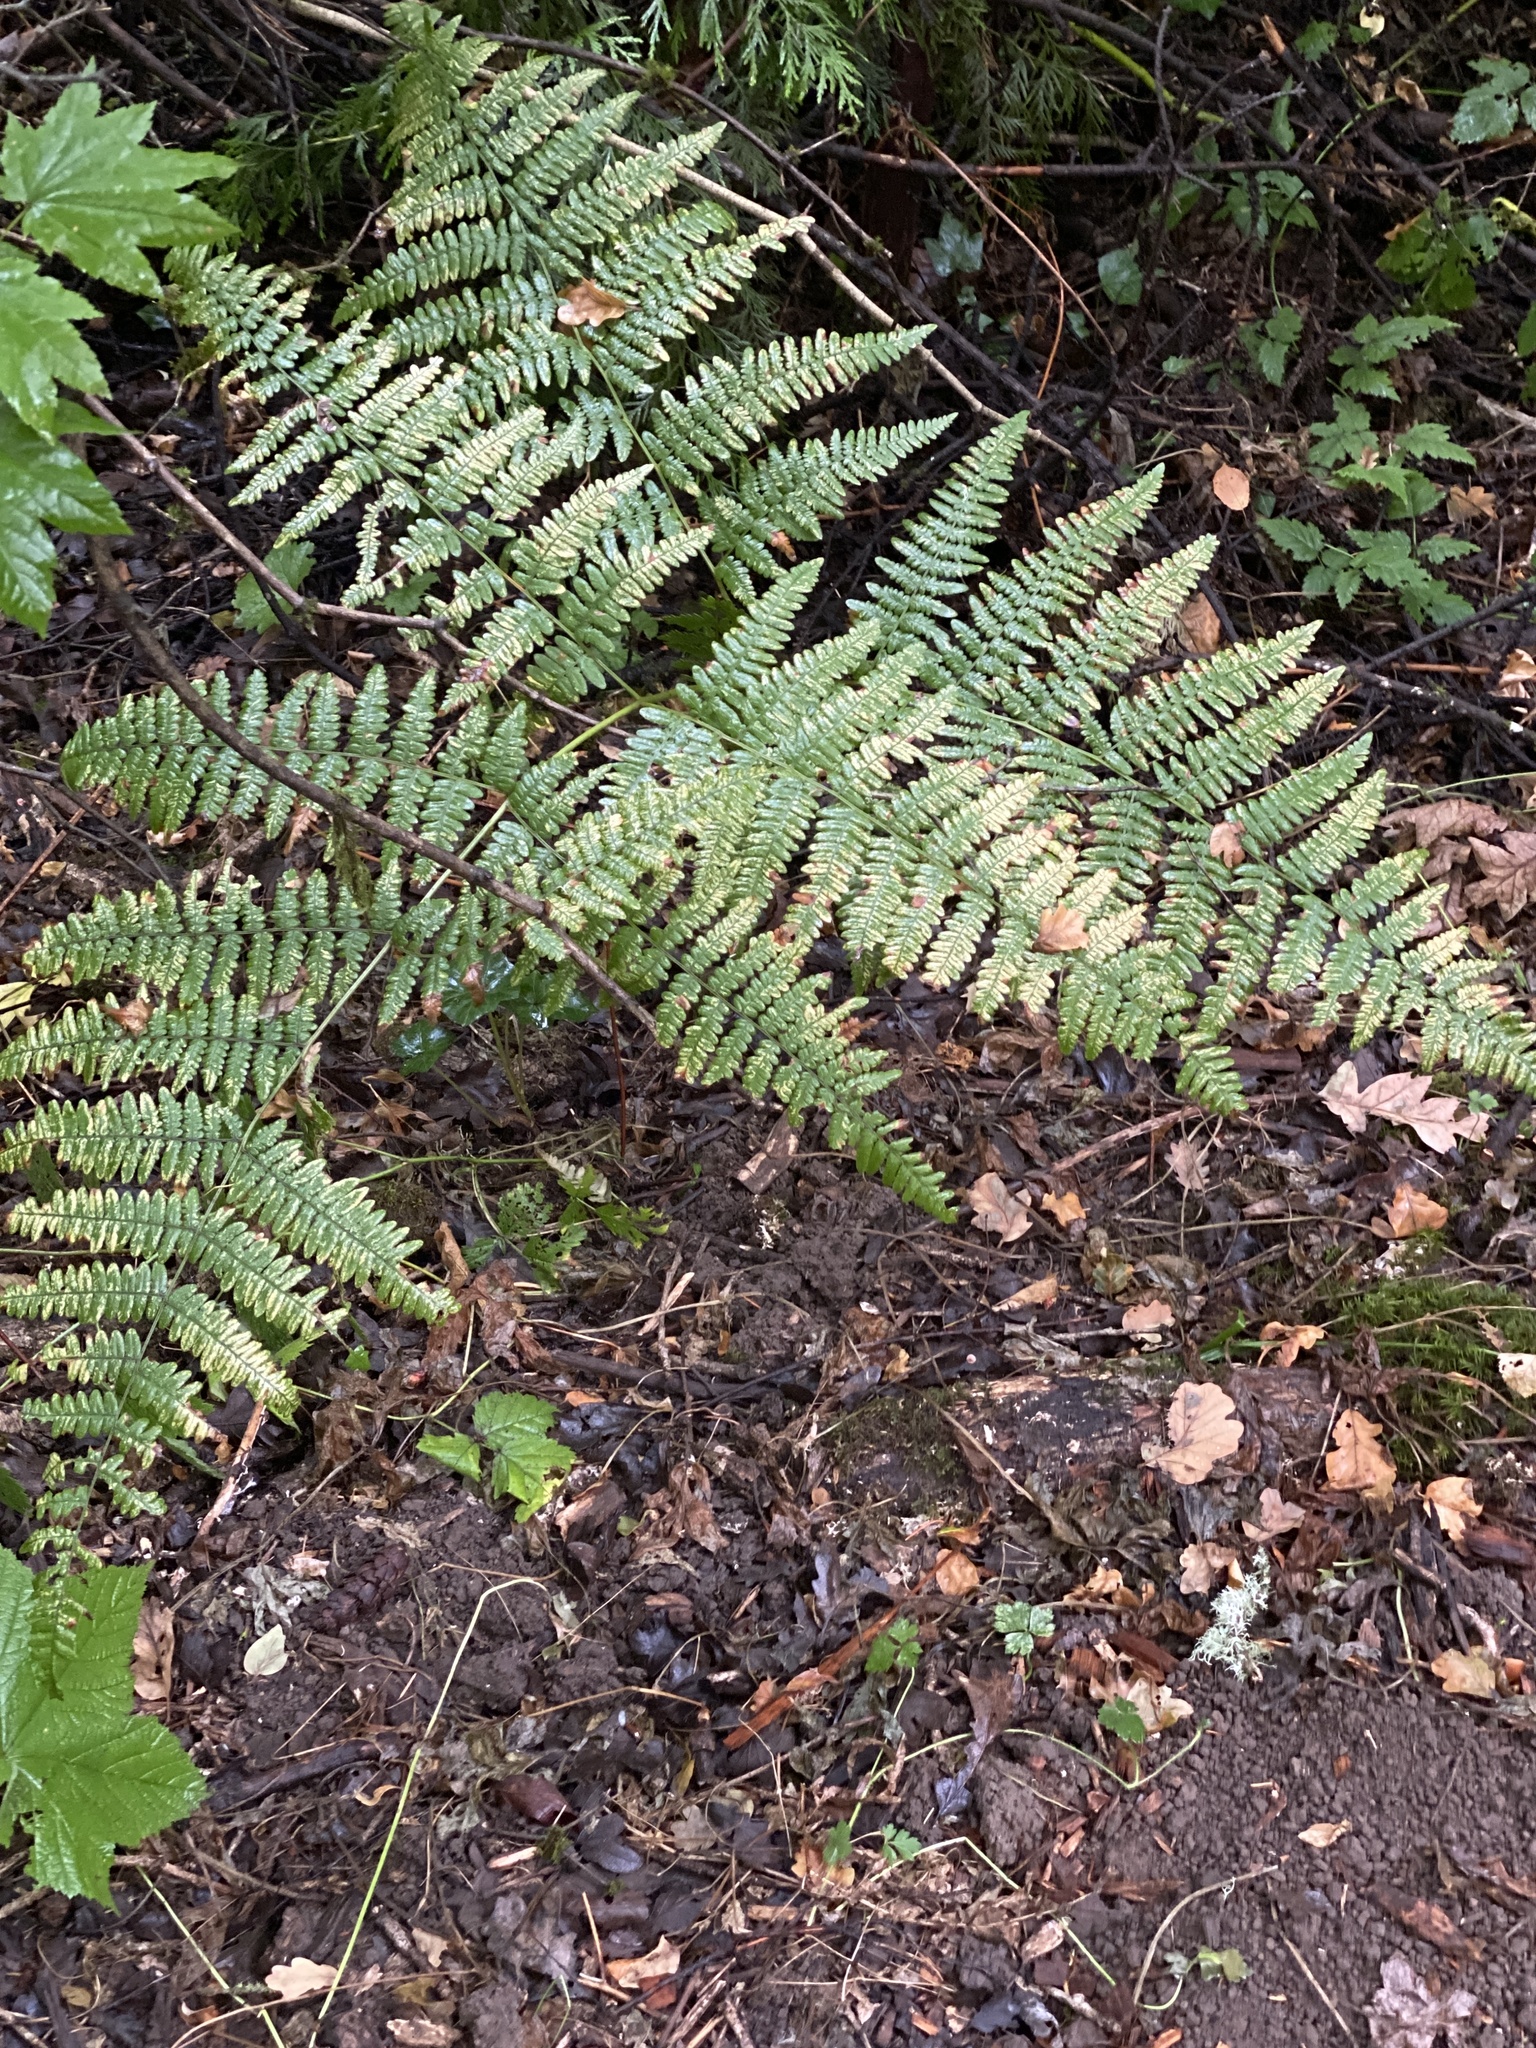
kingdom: Plantae
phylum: Tracheophyta
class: Polypodiopsida
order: Polypodiales
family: Dennstaedtiaceae
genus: Pteridium
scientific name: Pteridium aquilinum
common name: Bracken
